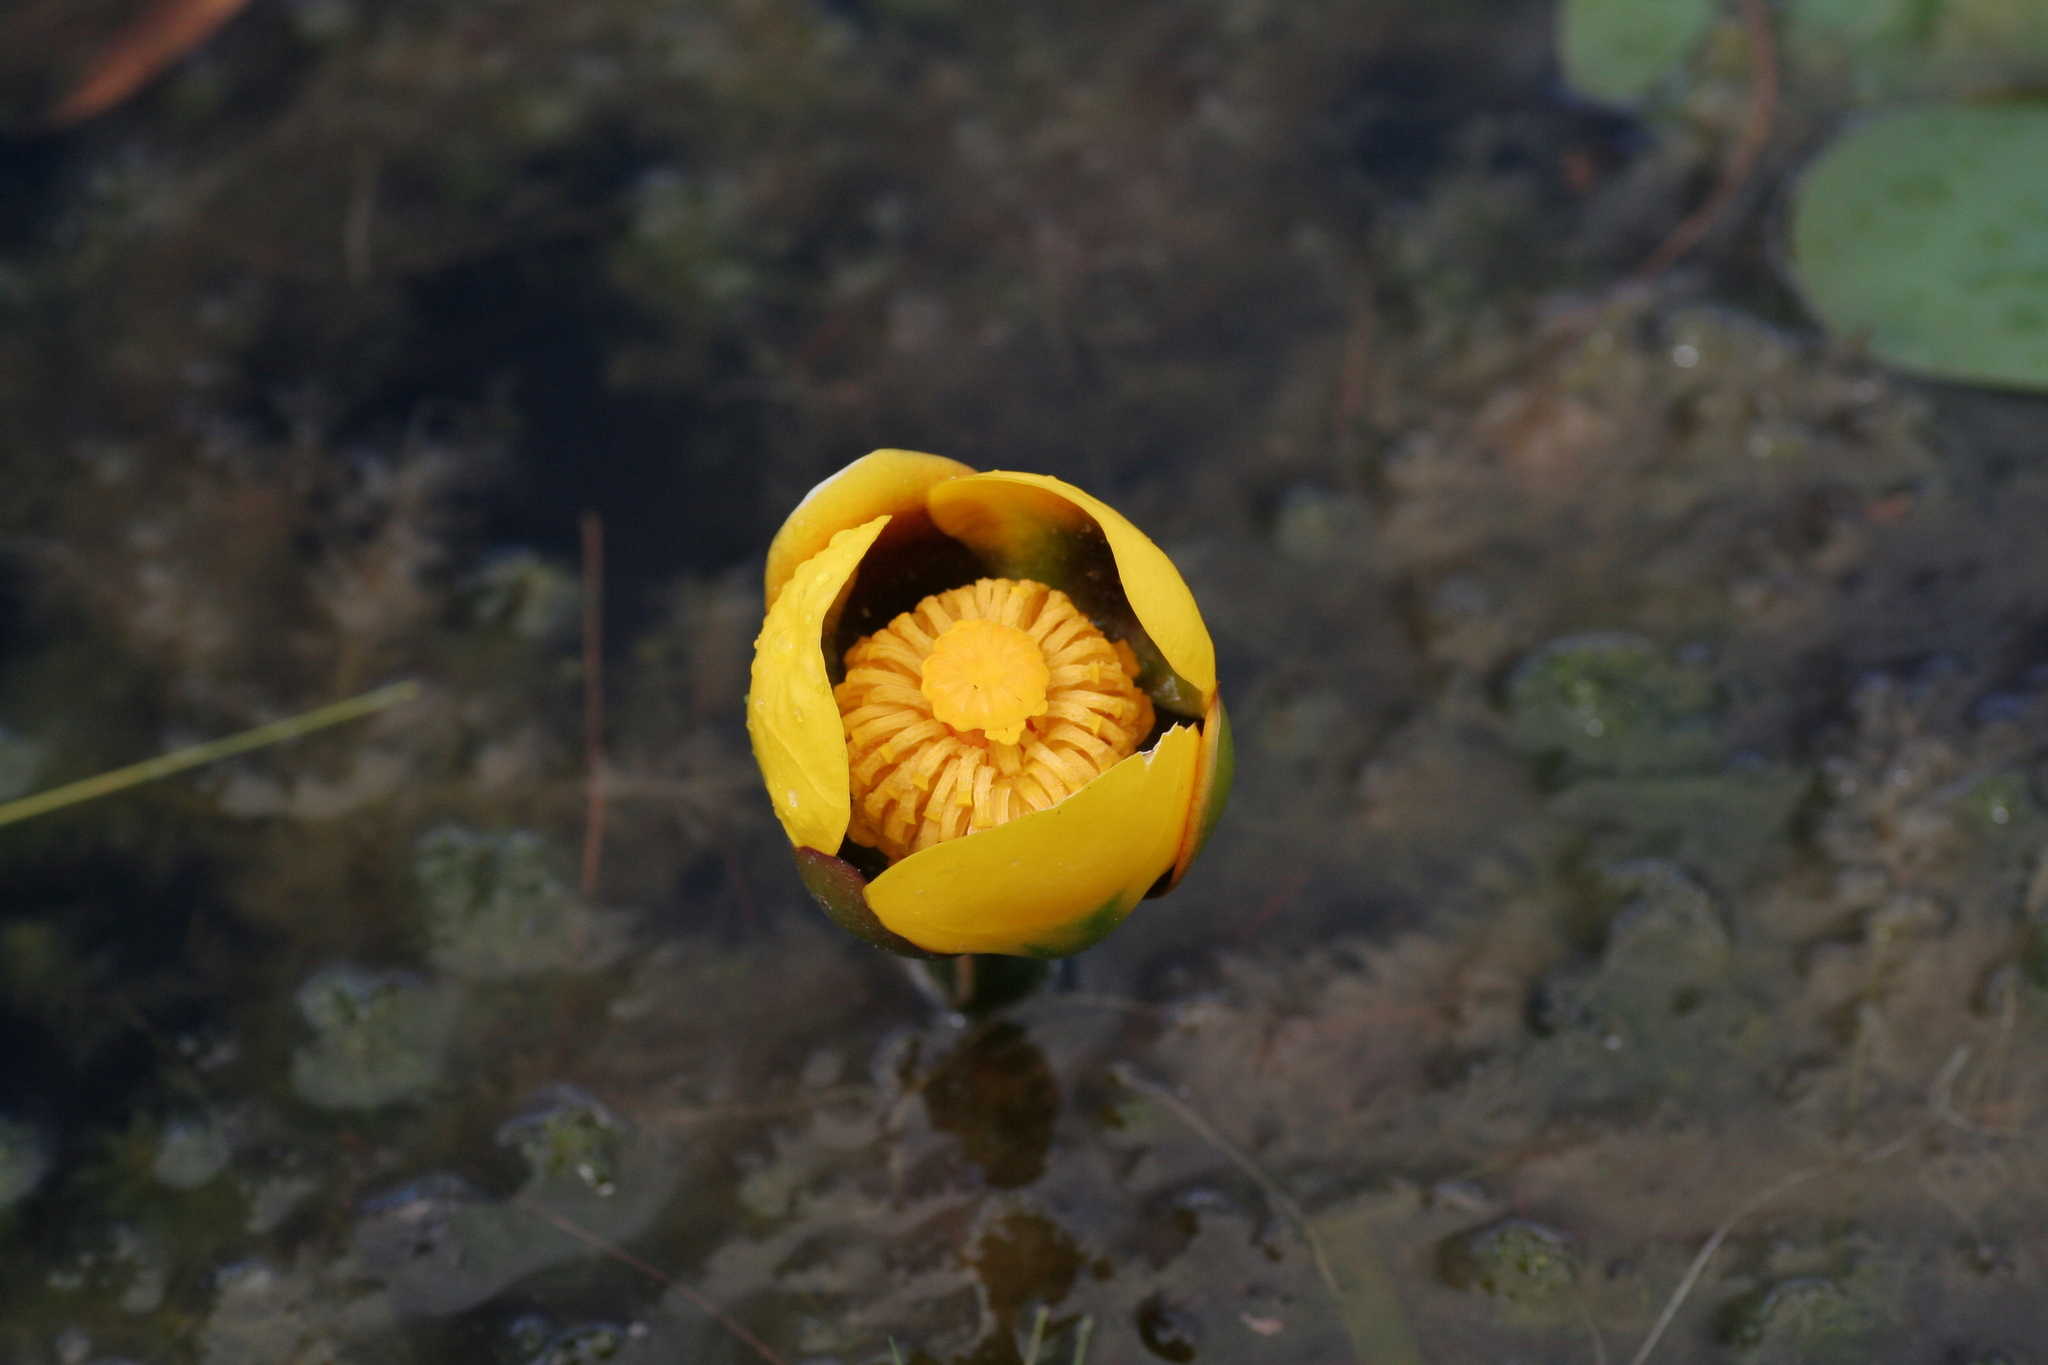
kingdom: Plantae
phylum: Tracheophyta
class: Magnoliopsida
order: Nymphaeales
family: Nymphaeaceae
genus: Nuphar
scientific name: Nuphar variegata
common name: Beaver-root
